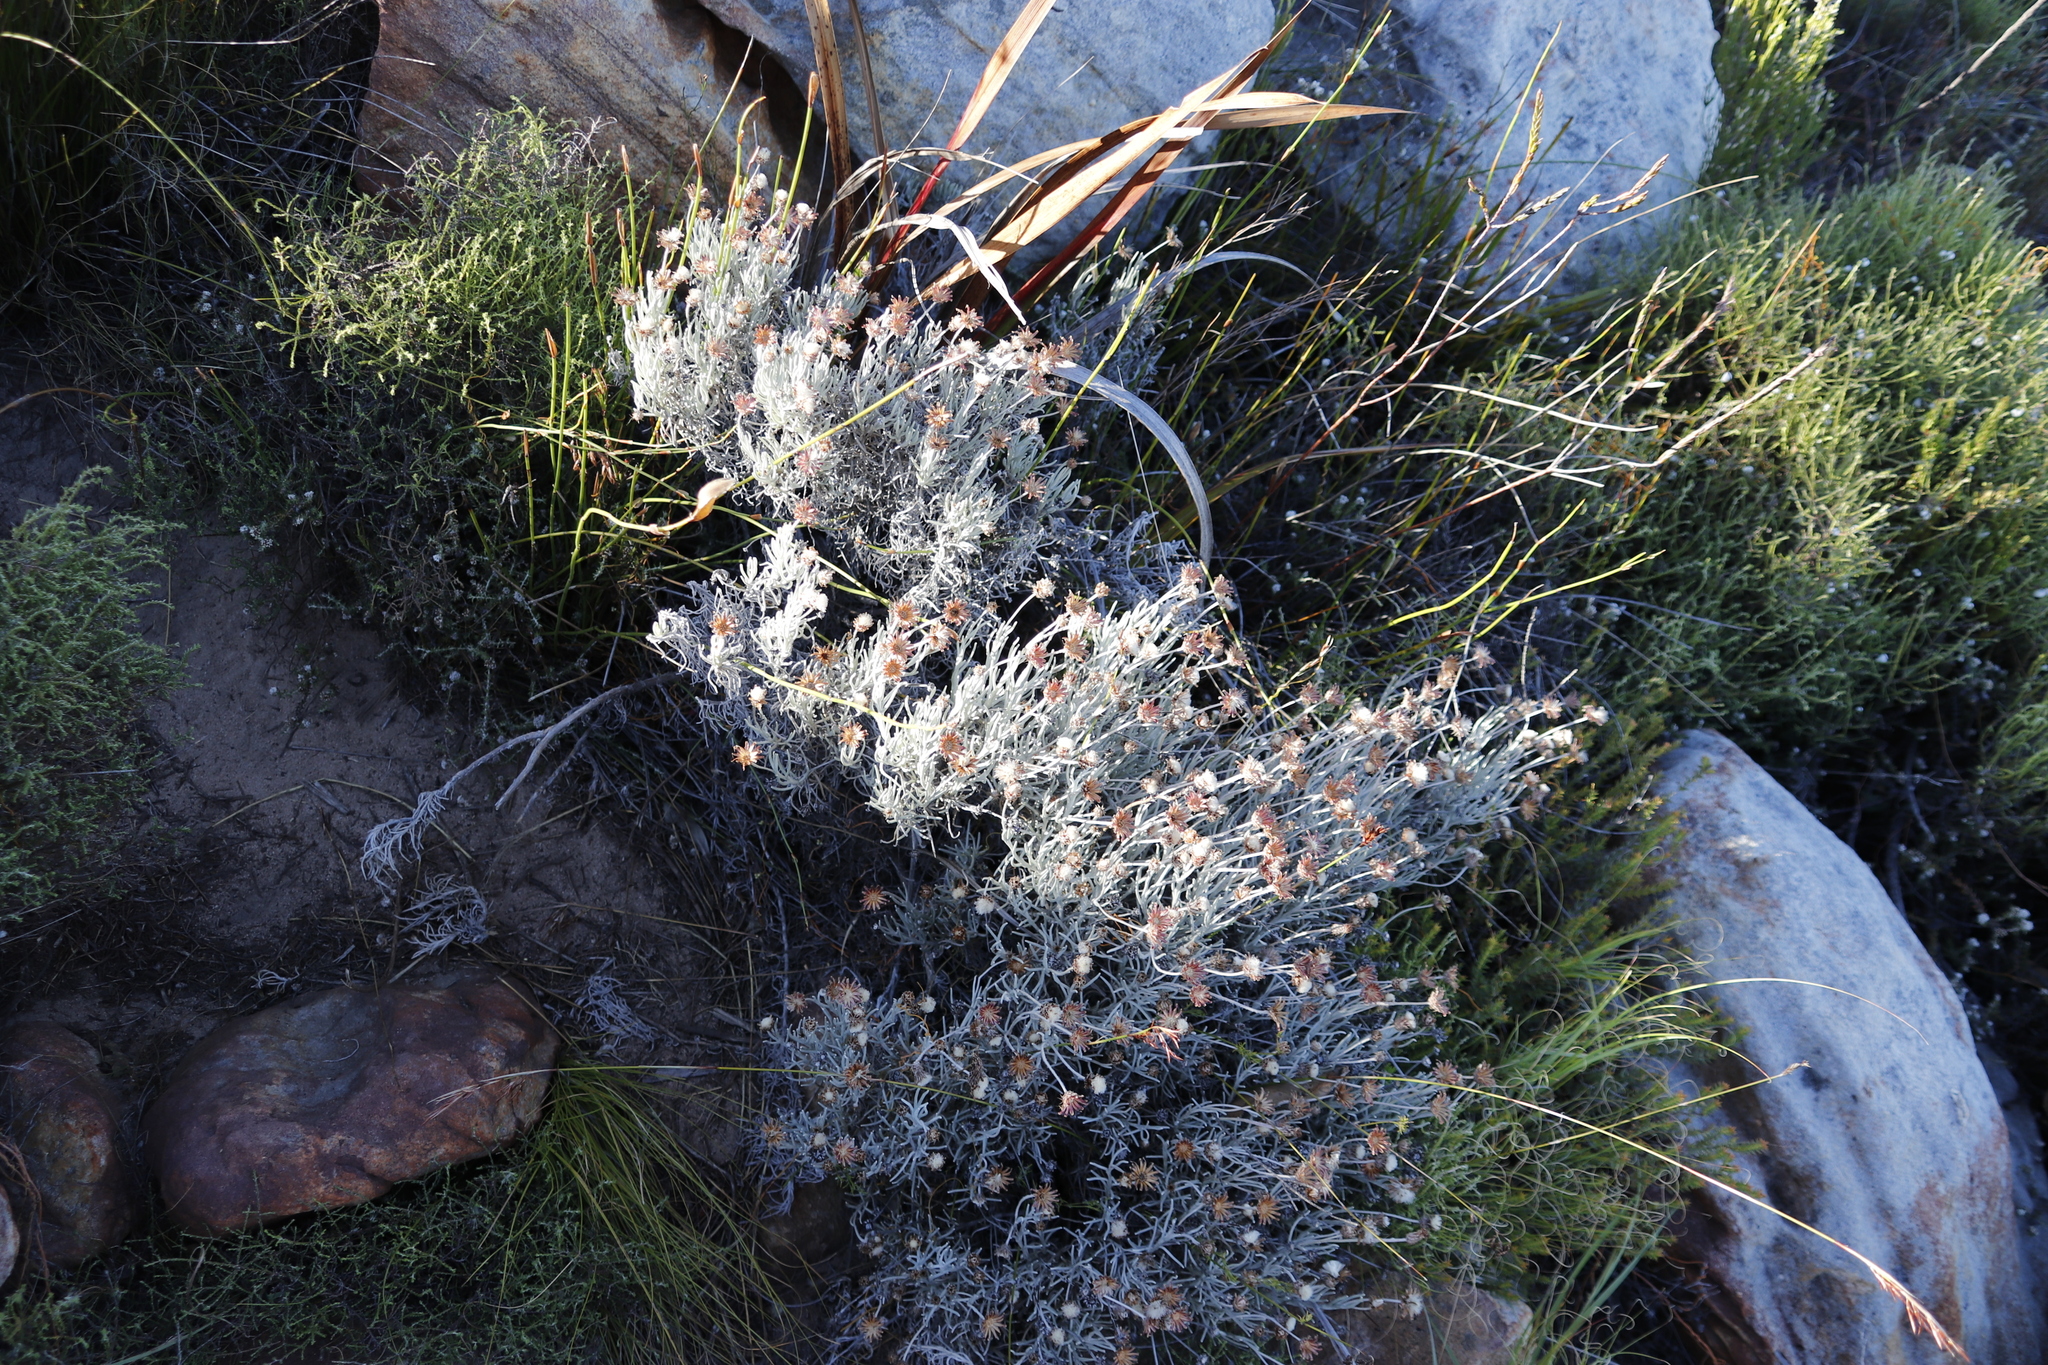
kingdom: Plantae
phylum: Tracheophyta
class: Magnoliopsida
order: Asterales
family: Asteraceae
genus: Syncarpha
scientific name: Syncarpha gnaphaloides
